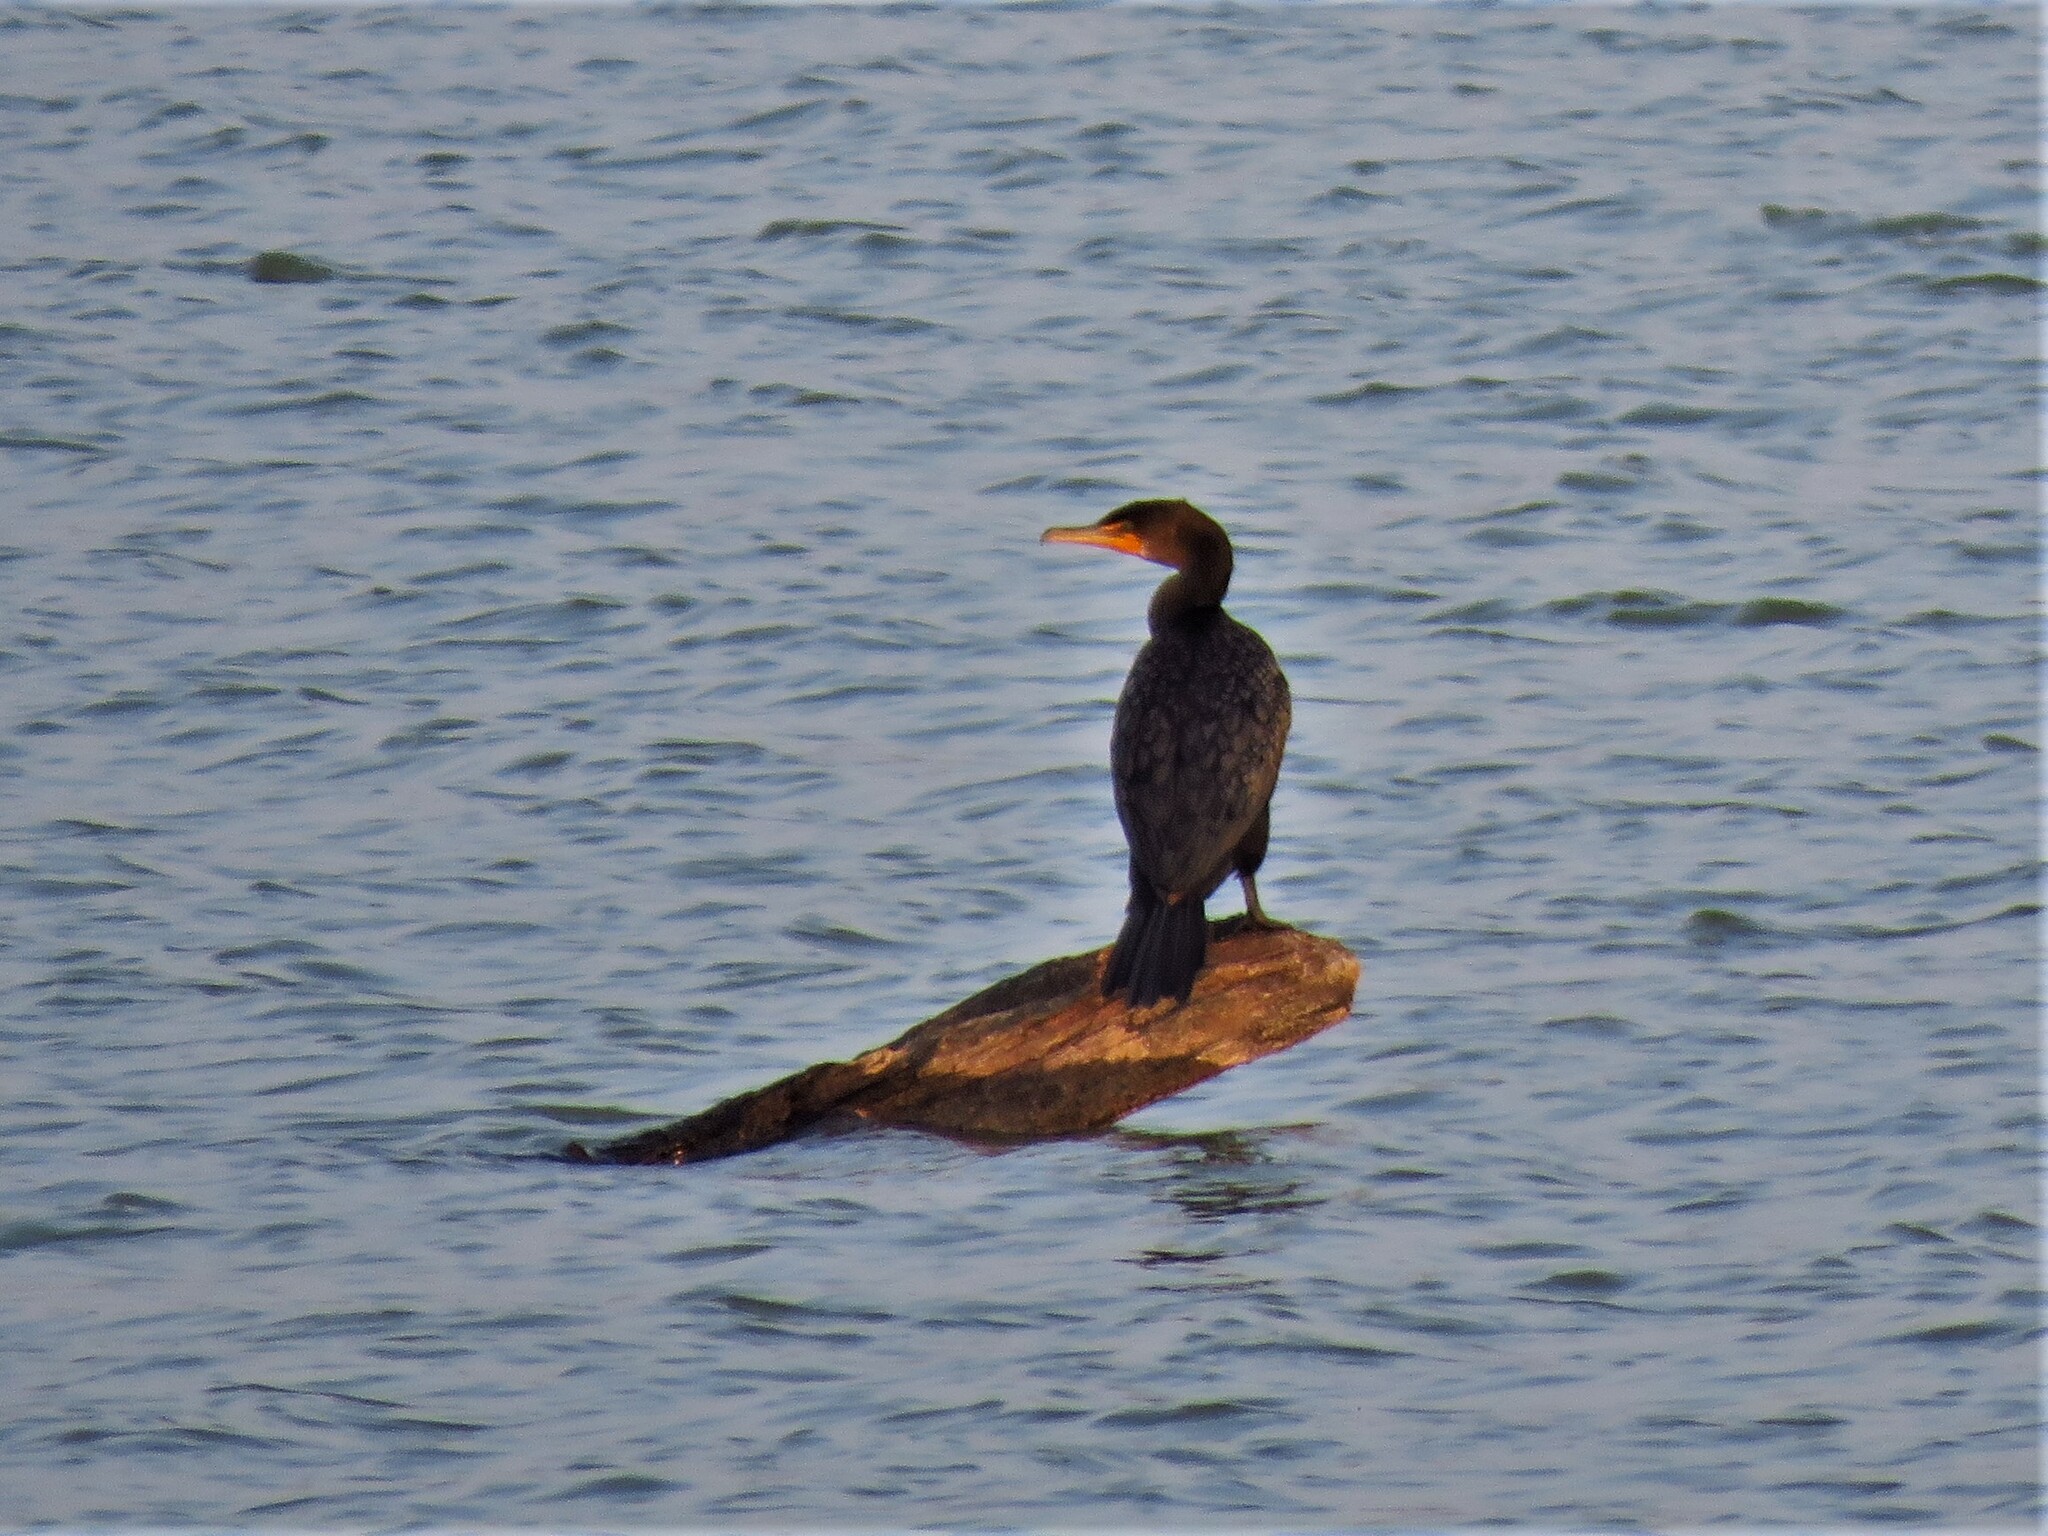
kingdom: Animalia
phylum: Chordata
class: Aves
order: Suliformes
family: Phalacrocoracidae
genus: Phalacrocorax
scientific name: Phalacrocorax auritus
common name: Double-crested cormorant
